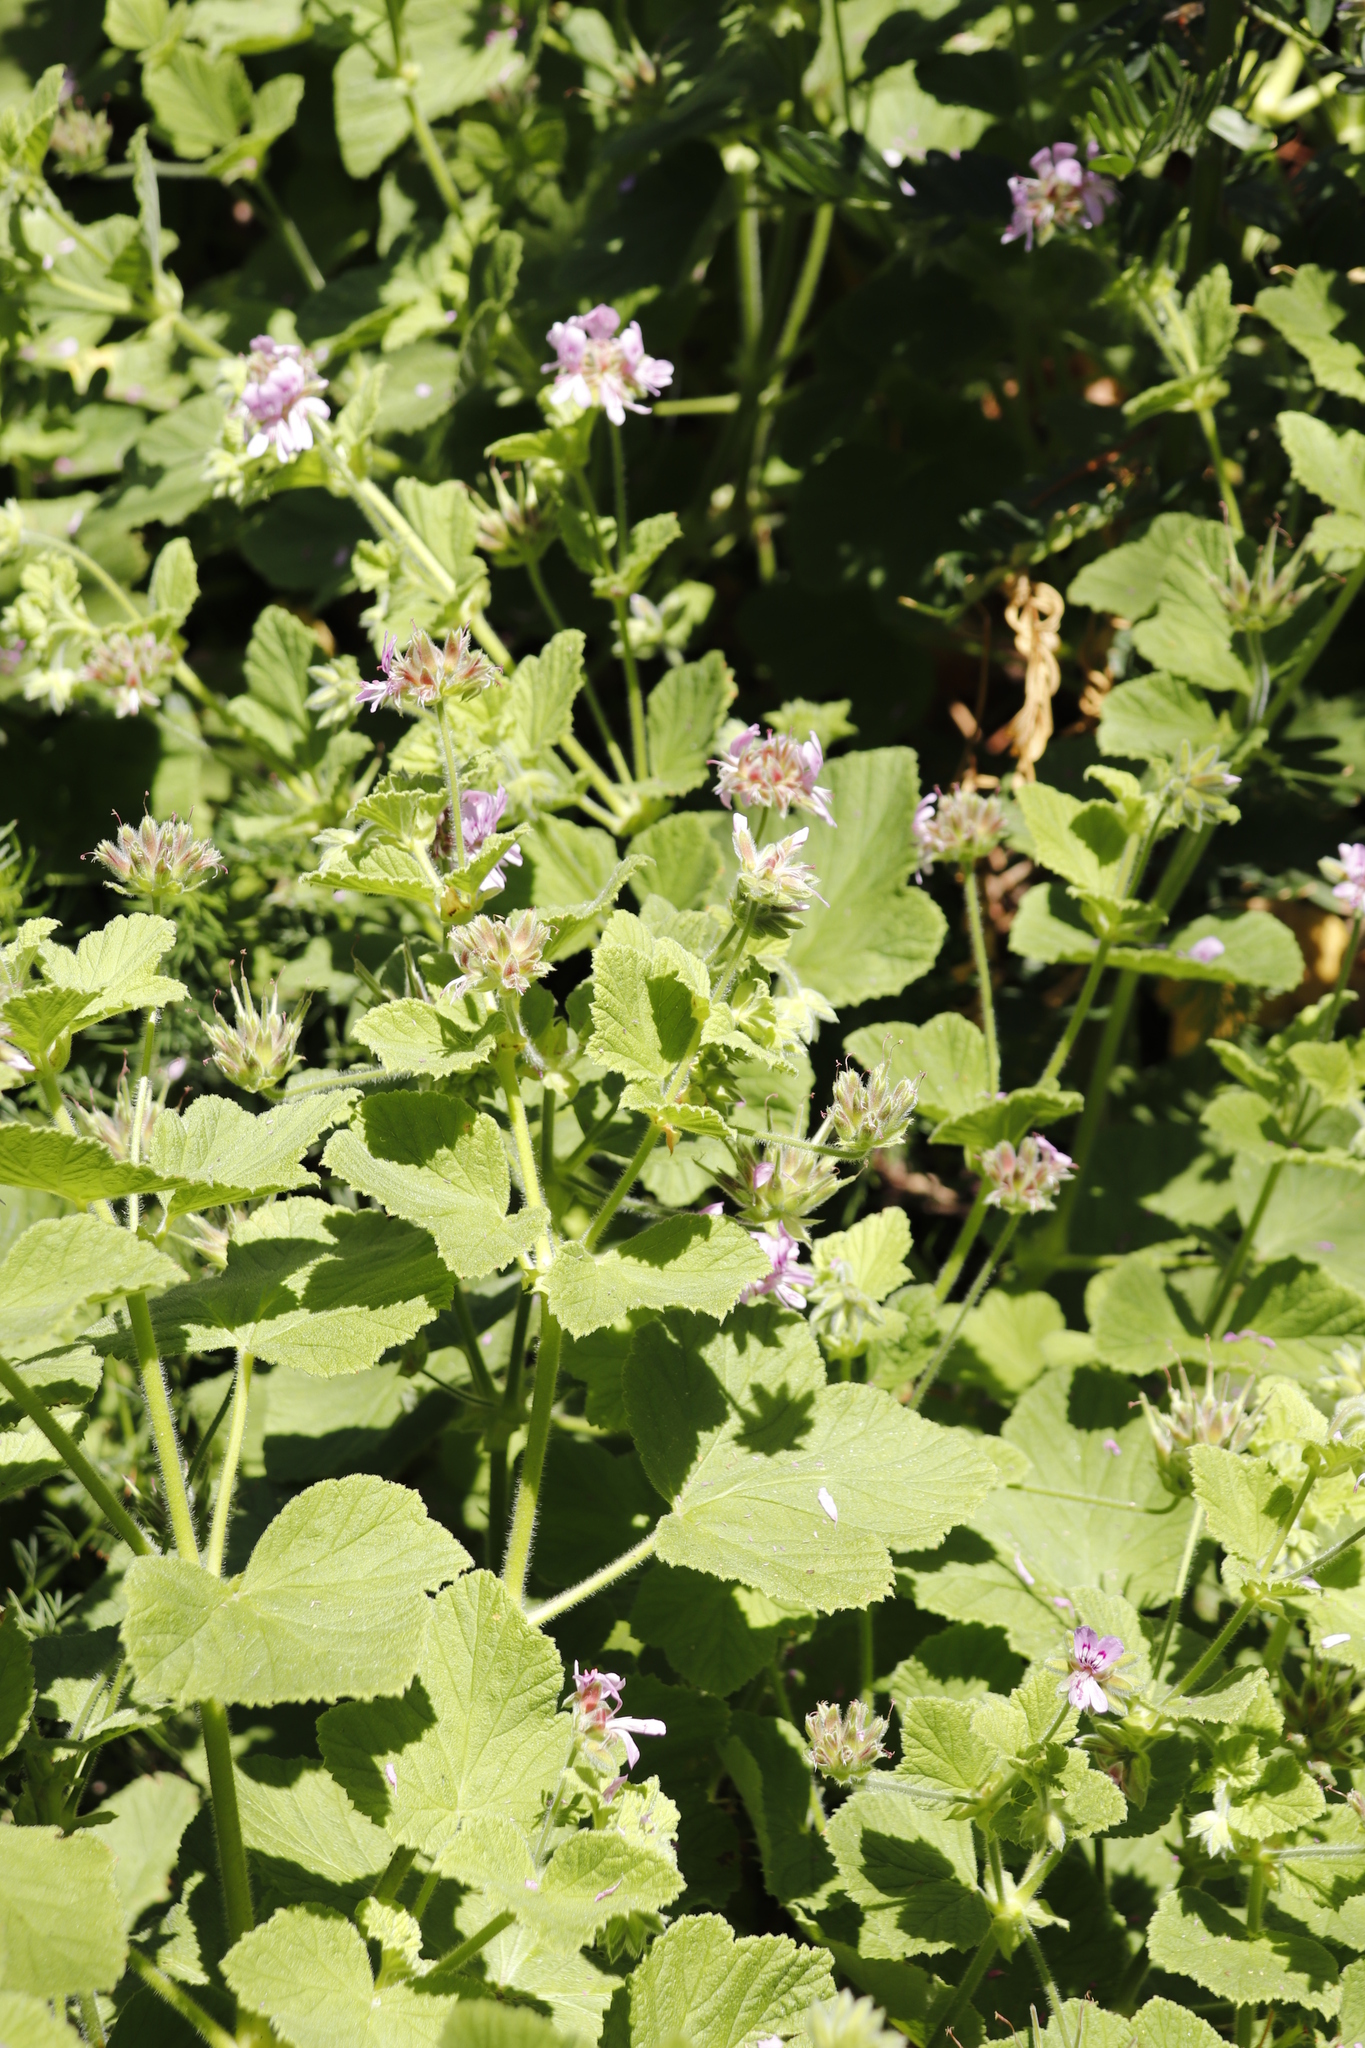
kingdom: Plantae
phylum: Tracheophyta
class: Magnoliopsida
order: Geraniales
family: Geraniaceae
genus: Pelargonium
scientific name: Pelargonium vitifolium
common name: Grapeleaf geranium
